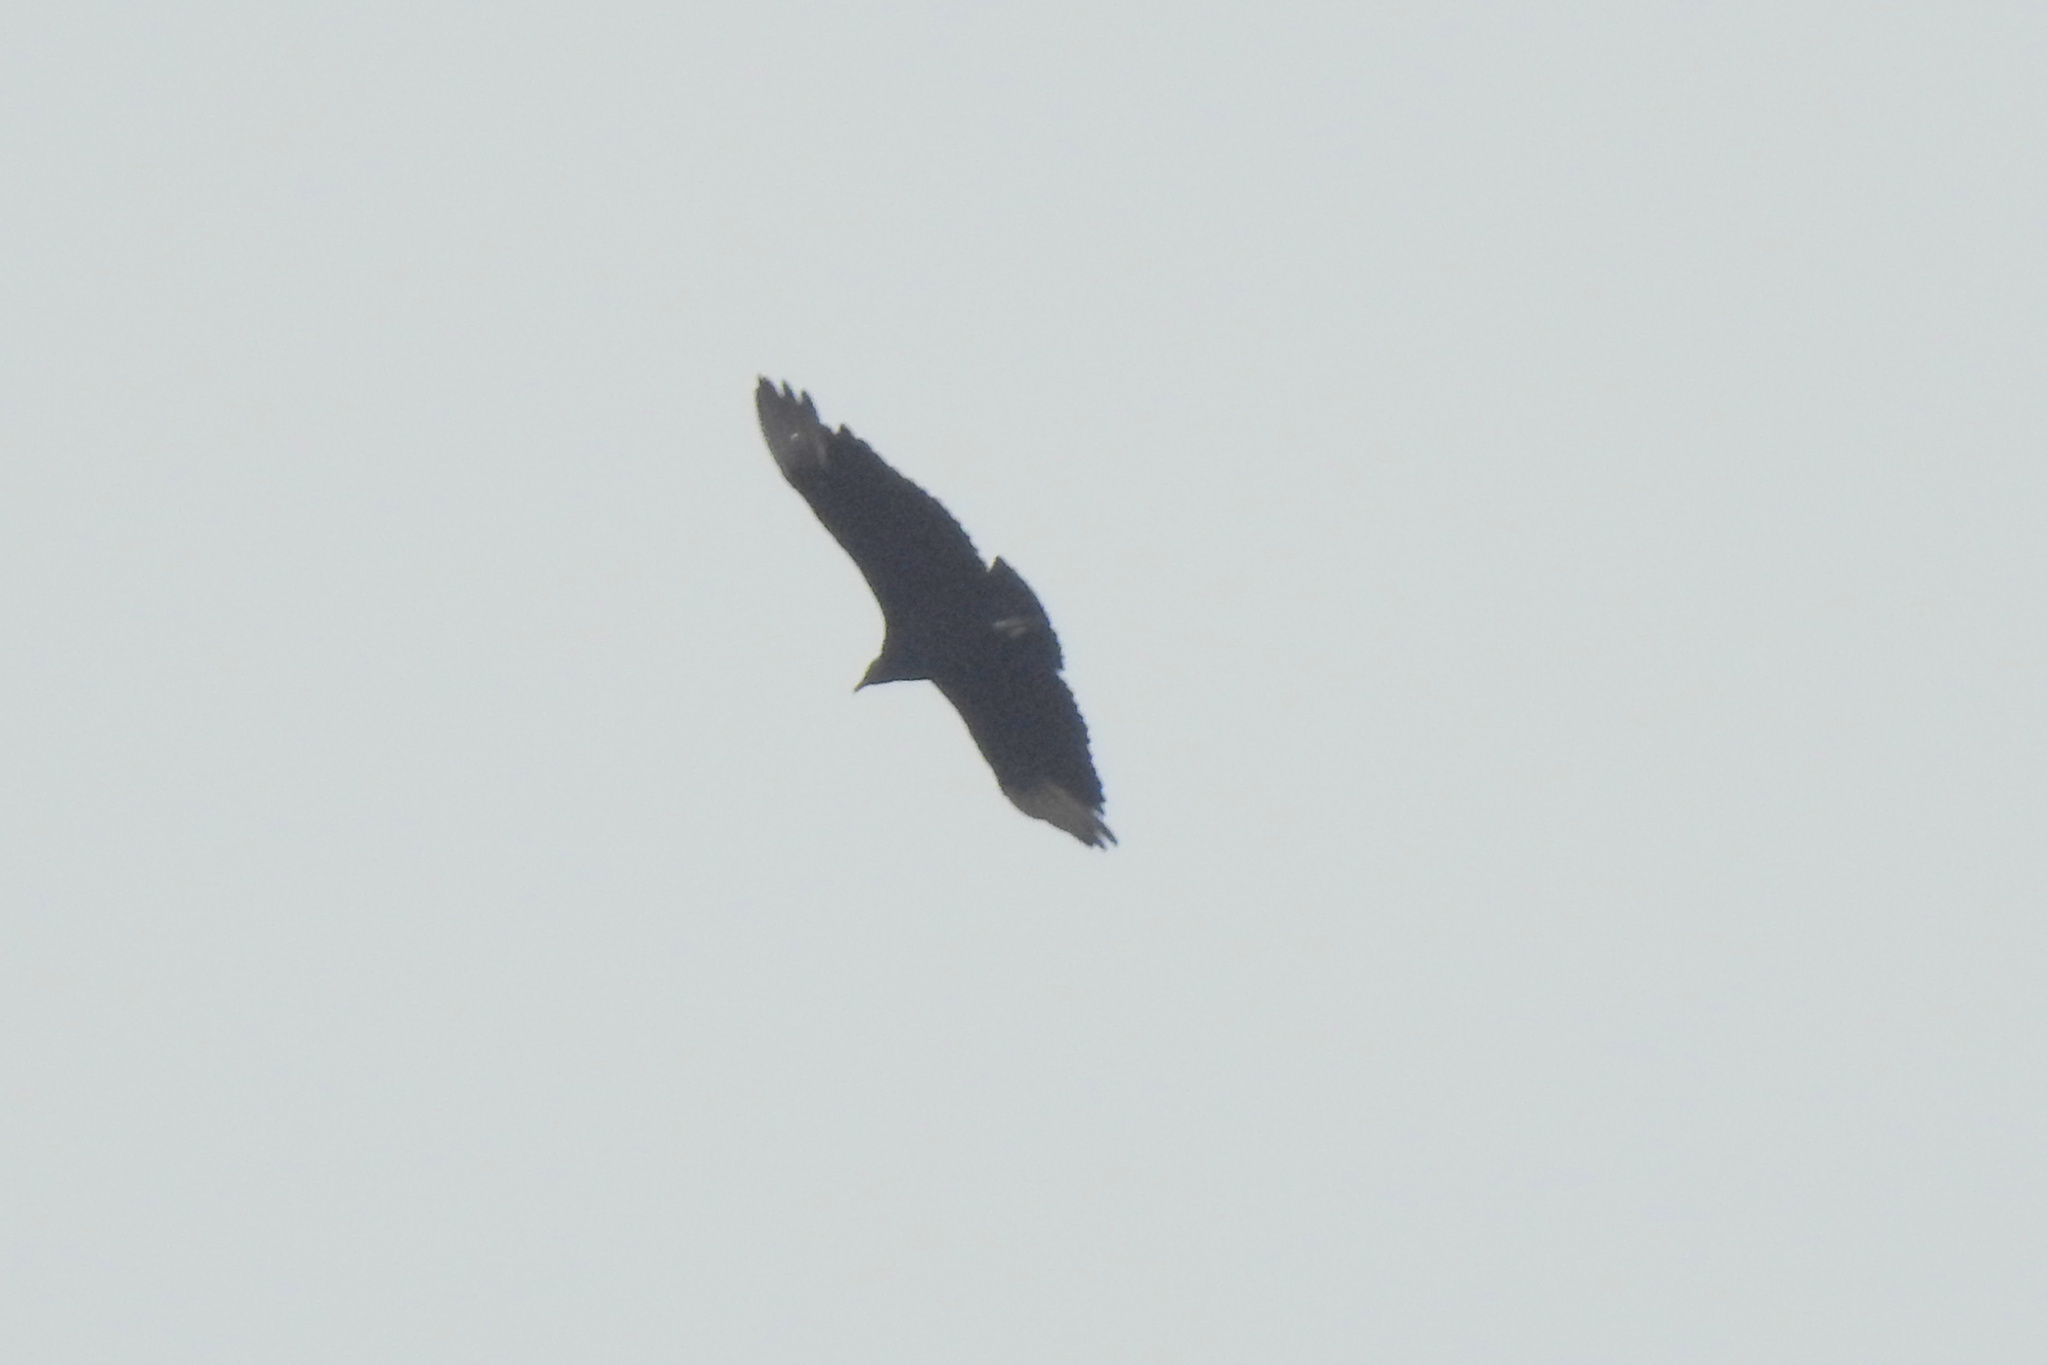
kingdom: Animalia
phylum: Chordata
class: Aves
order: Accipitriformes
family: Cathartidae
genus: Coragyps
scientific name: Coragyps atratus
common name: Black vulture
